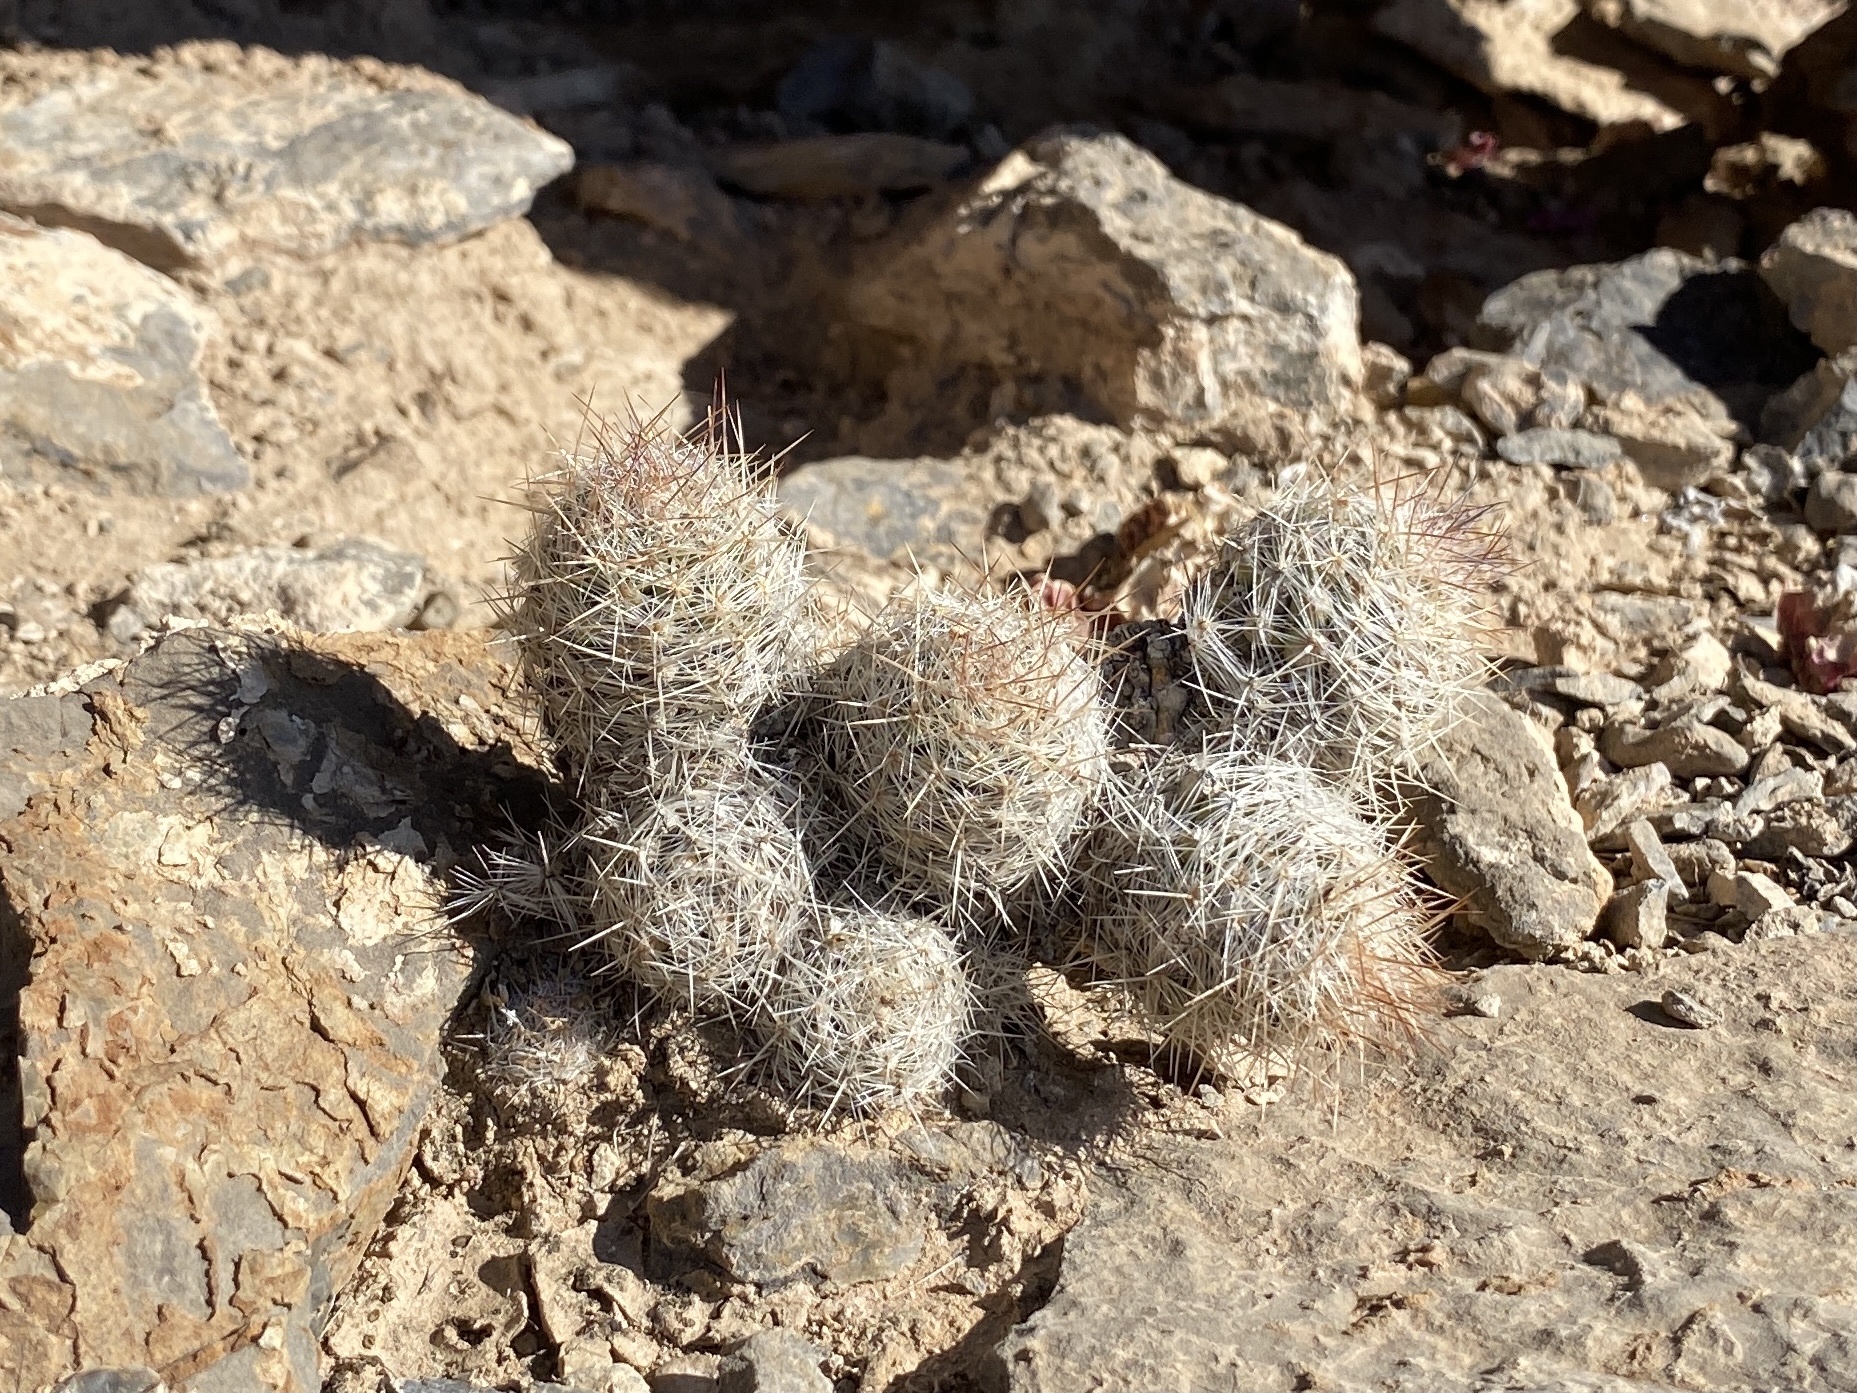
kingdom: Plantae
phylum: Tracheophyta
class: Magnoliopsida
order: Caryophyllales
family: Cactaceae
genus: Pelecyphora
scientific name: Pelecyphora tuberculosa
